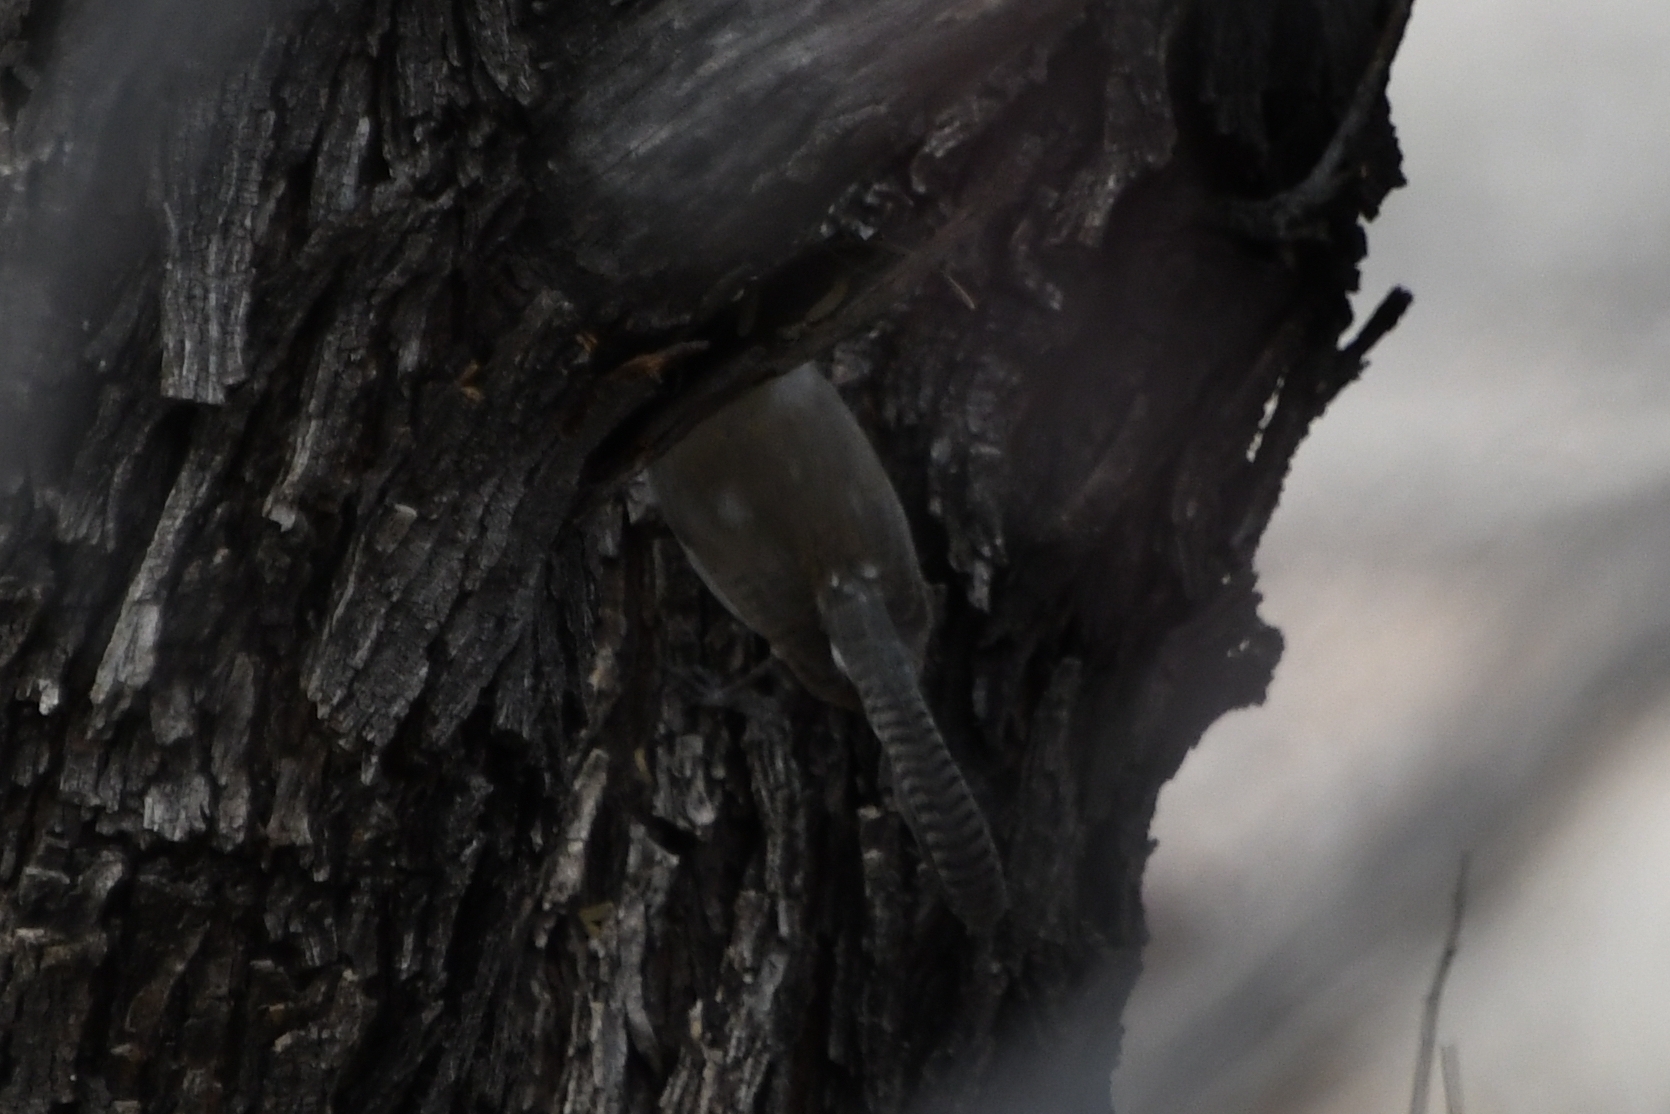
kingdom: Animalia
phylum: Chordata
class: Aves
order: Passeriformes
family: Troglodytidae
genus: Thryomanes
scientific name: Thryomanes bewickii
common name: Bewick's wren
